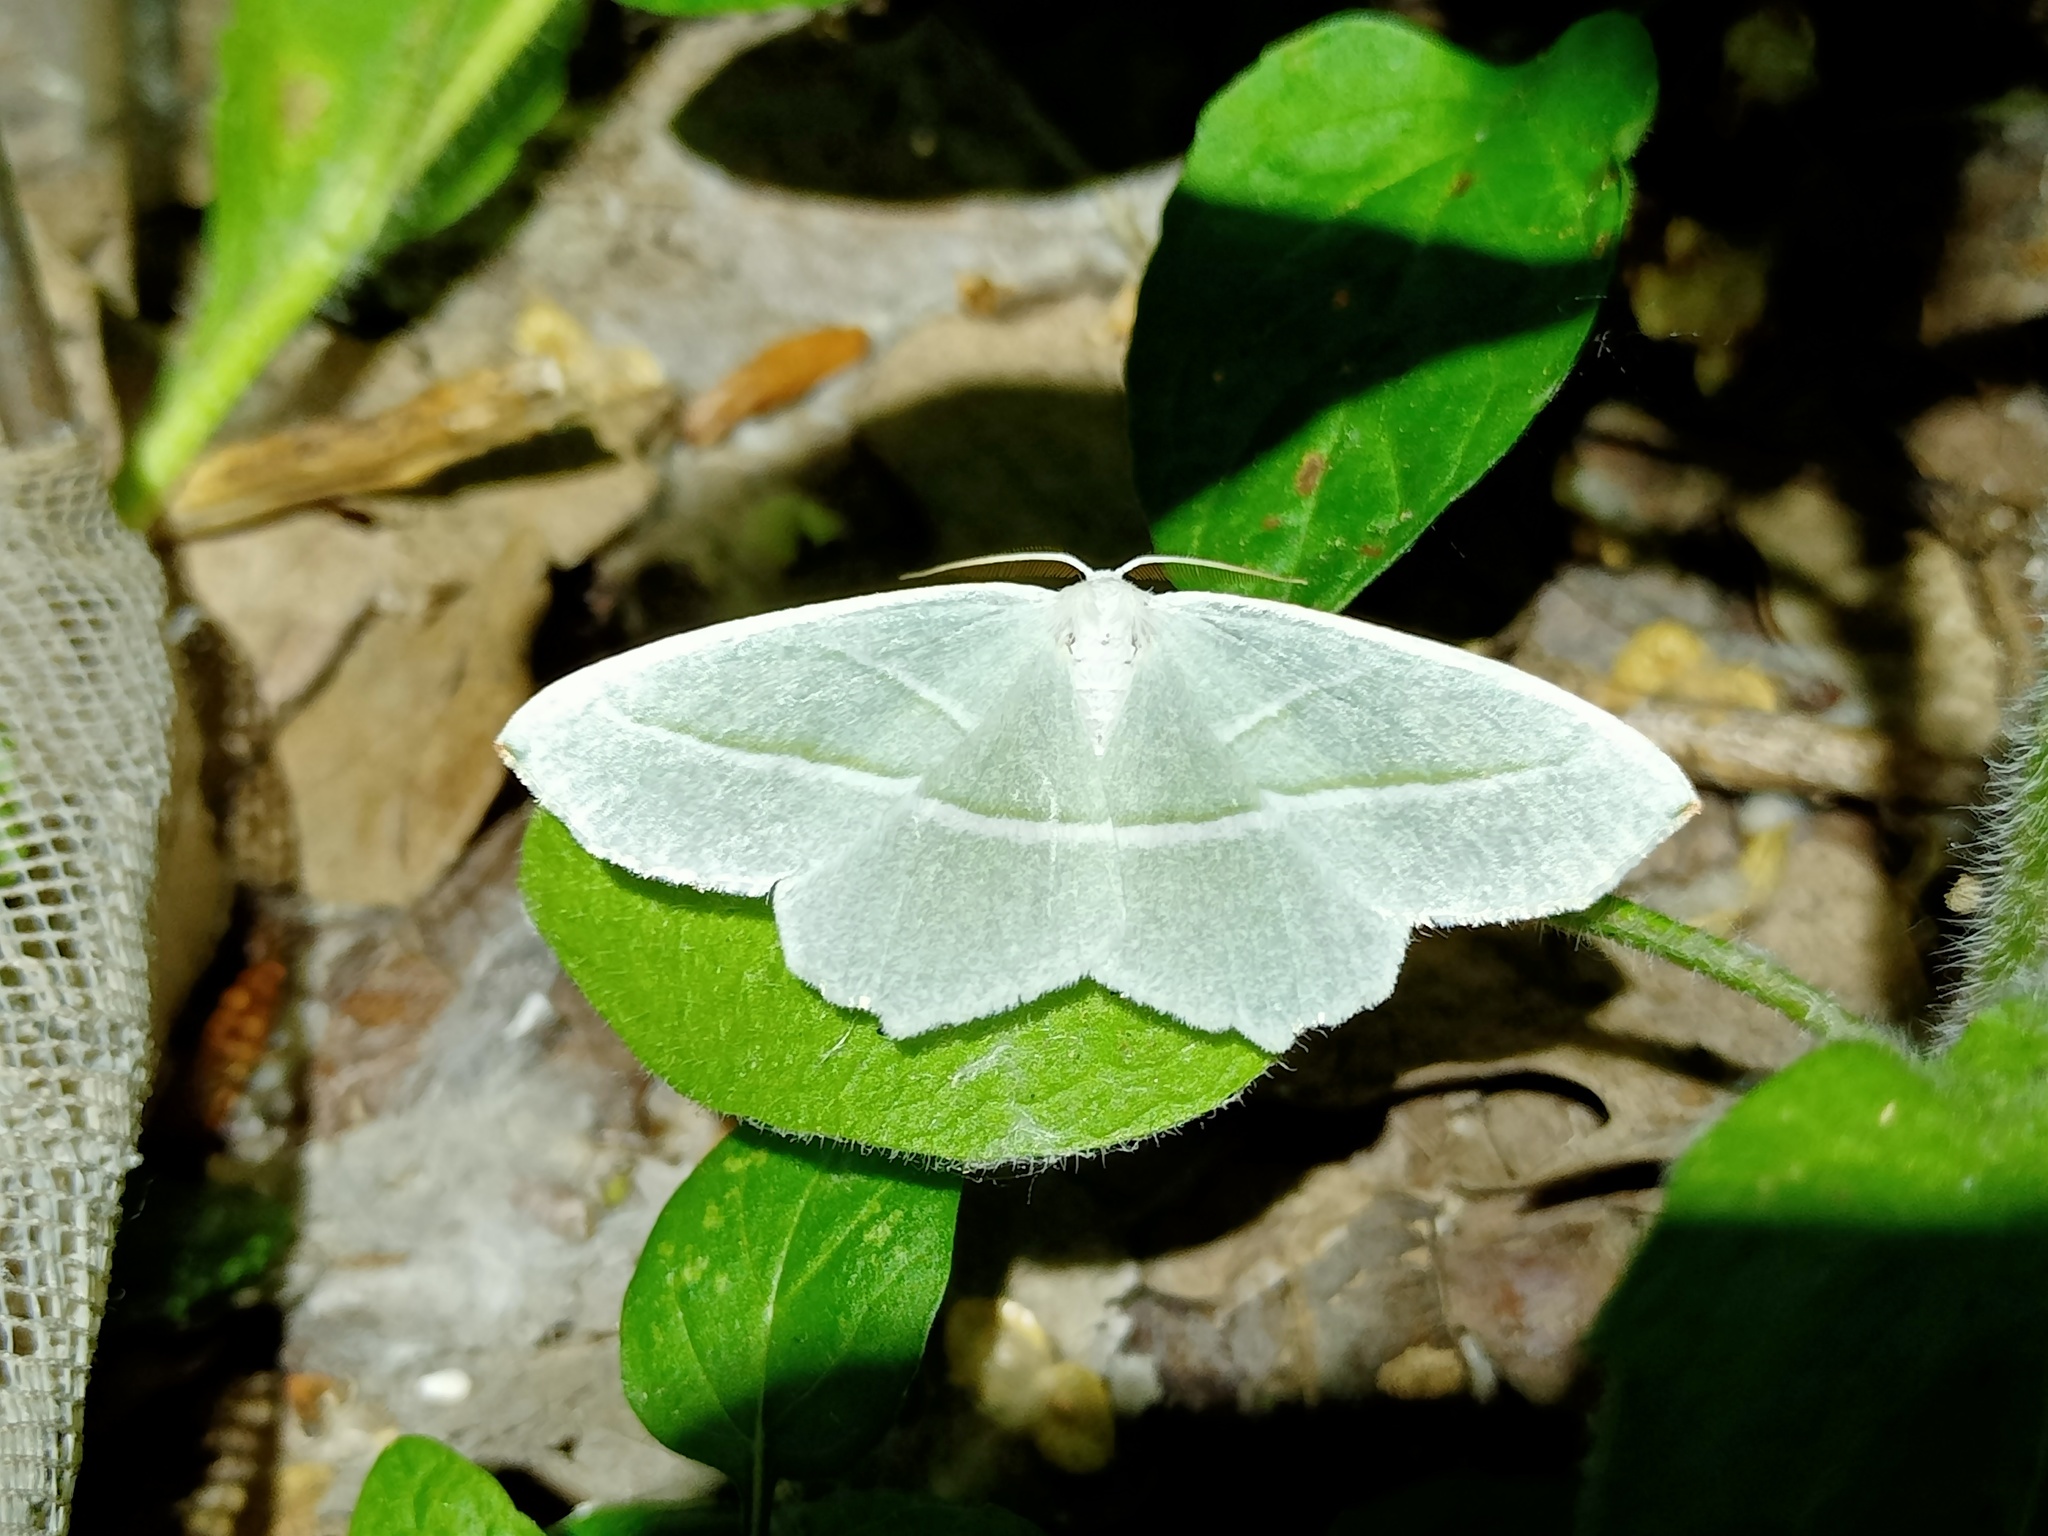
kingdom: Animalia
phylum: Arthropoda
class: Insecta
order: Lepidoptera
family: Geometridae
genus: Campaea
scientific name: Campaea margaritaria
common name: Light emerald
